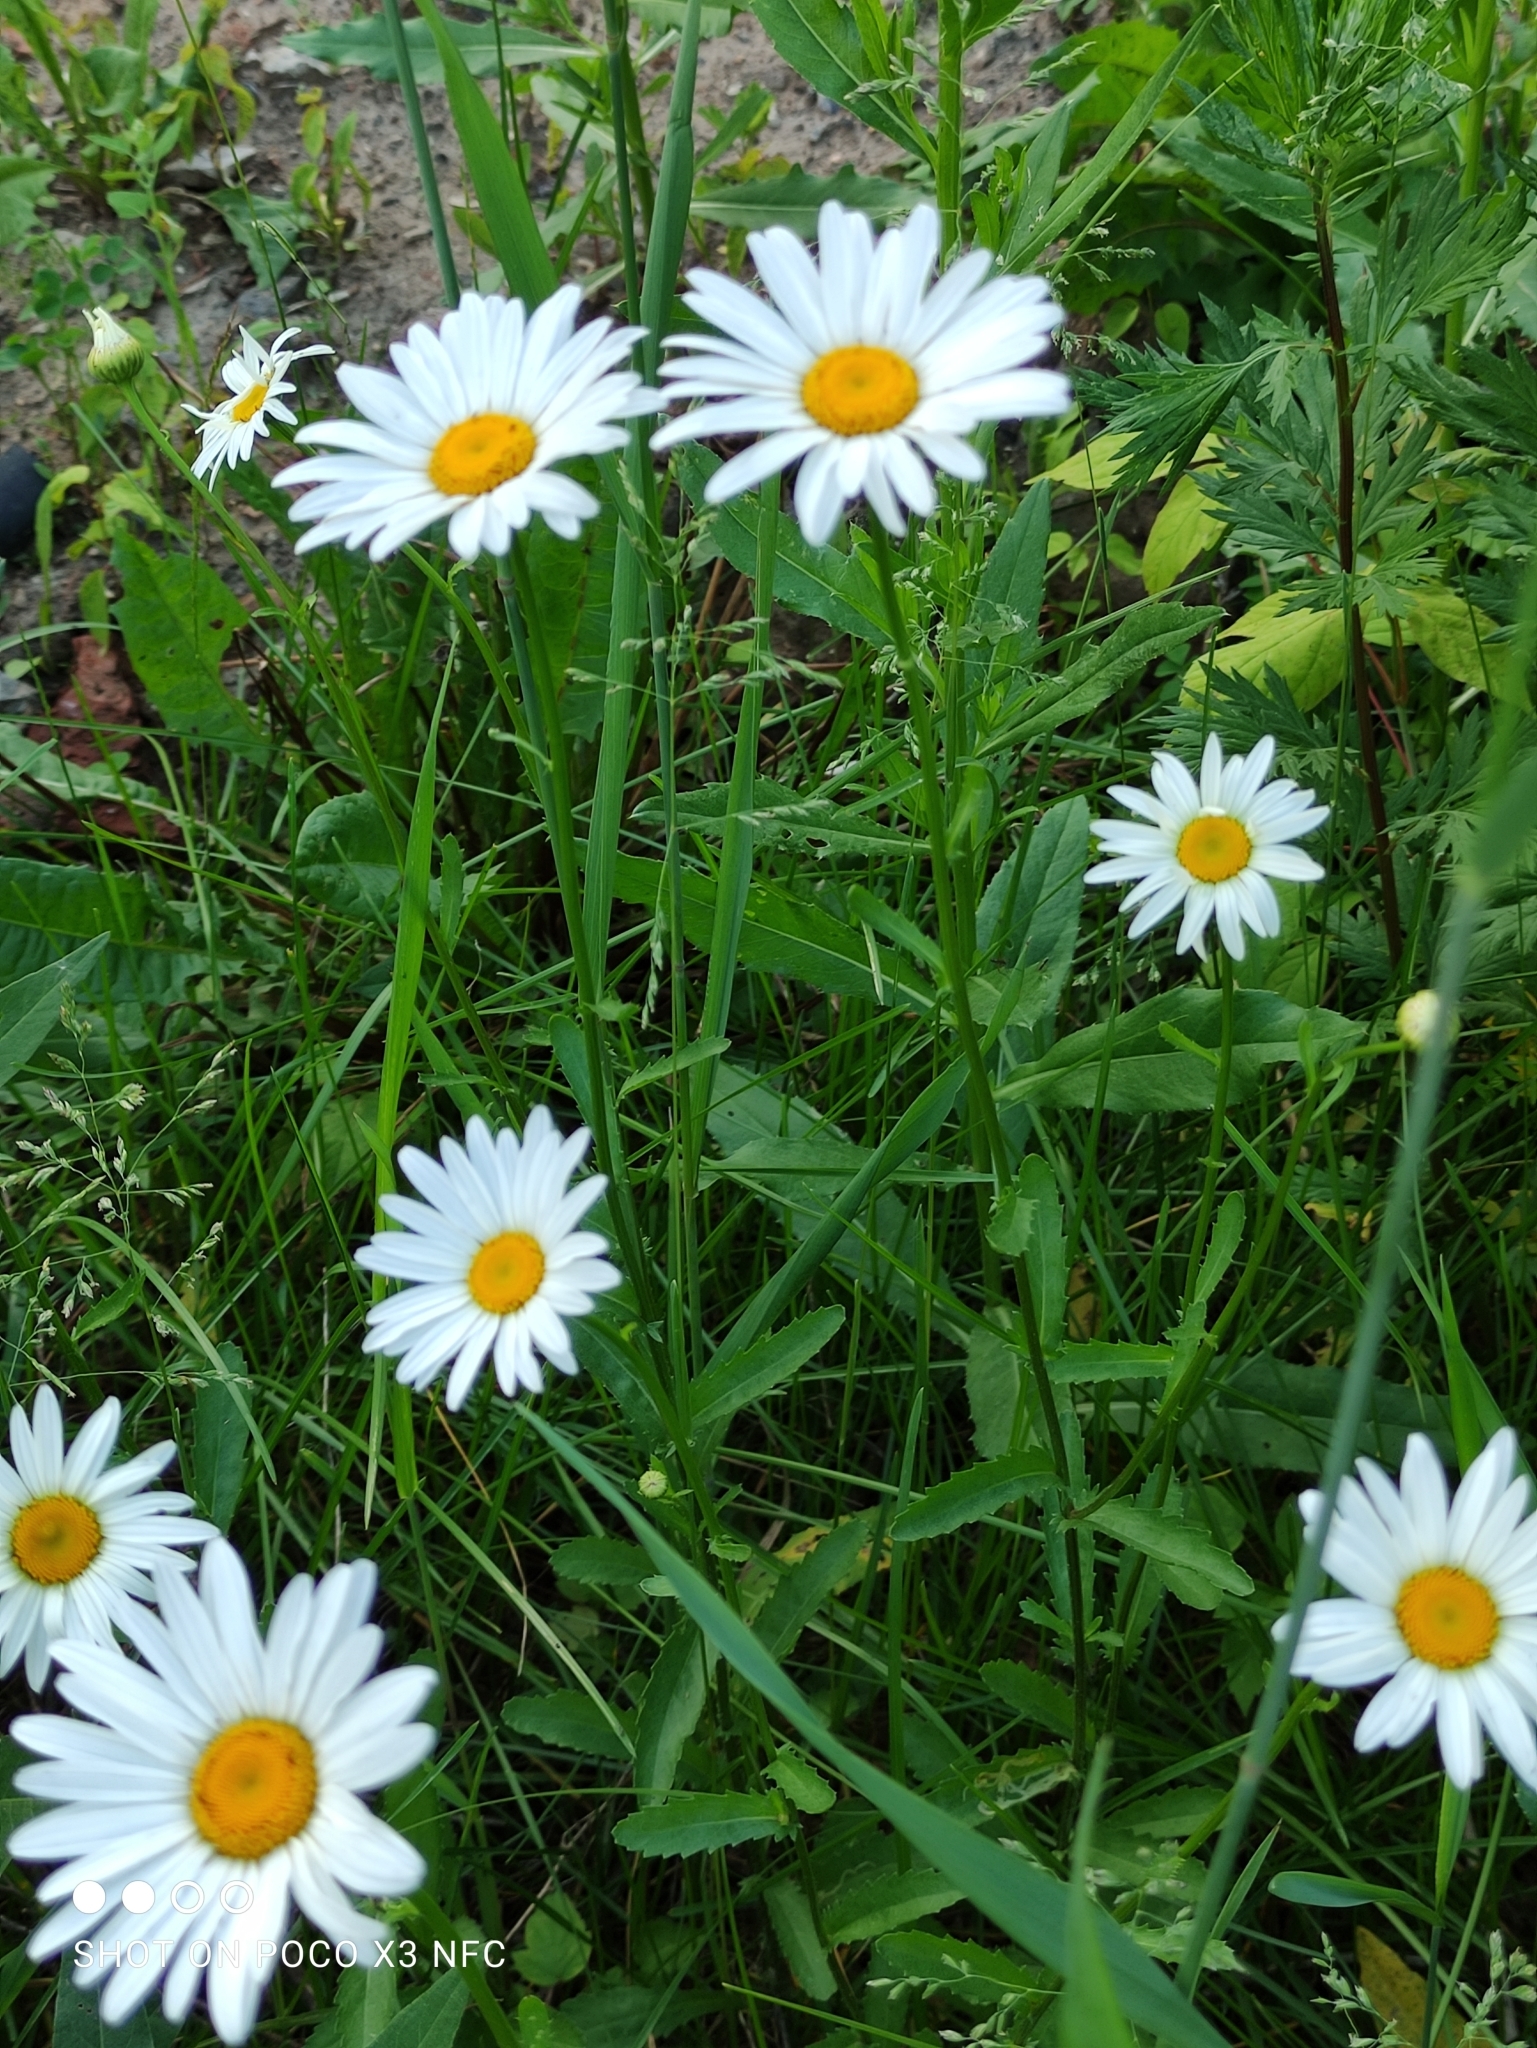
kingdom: Plantae
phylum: Tracheophyta
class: Magnoliopsida
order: Asterales
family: Asteraceae
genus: Leucanthemum
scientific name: Leucanthemum vulgare
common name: Oxeye daisy
